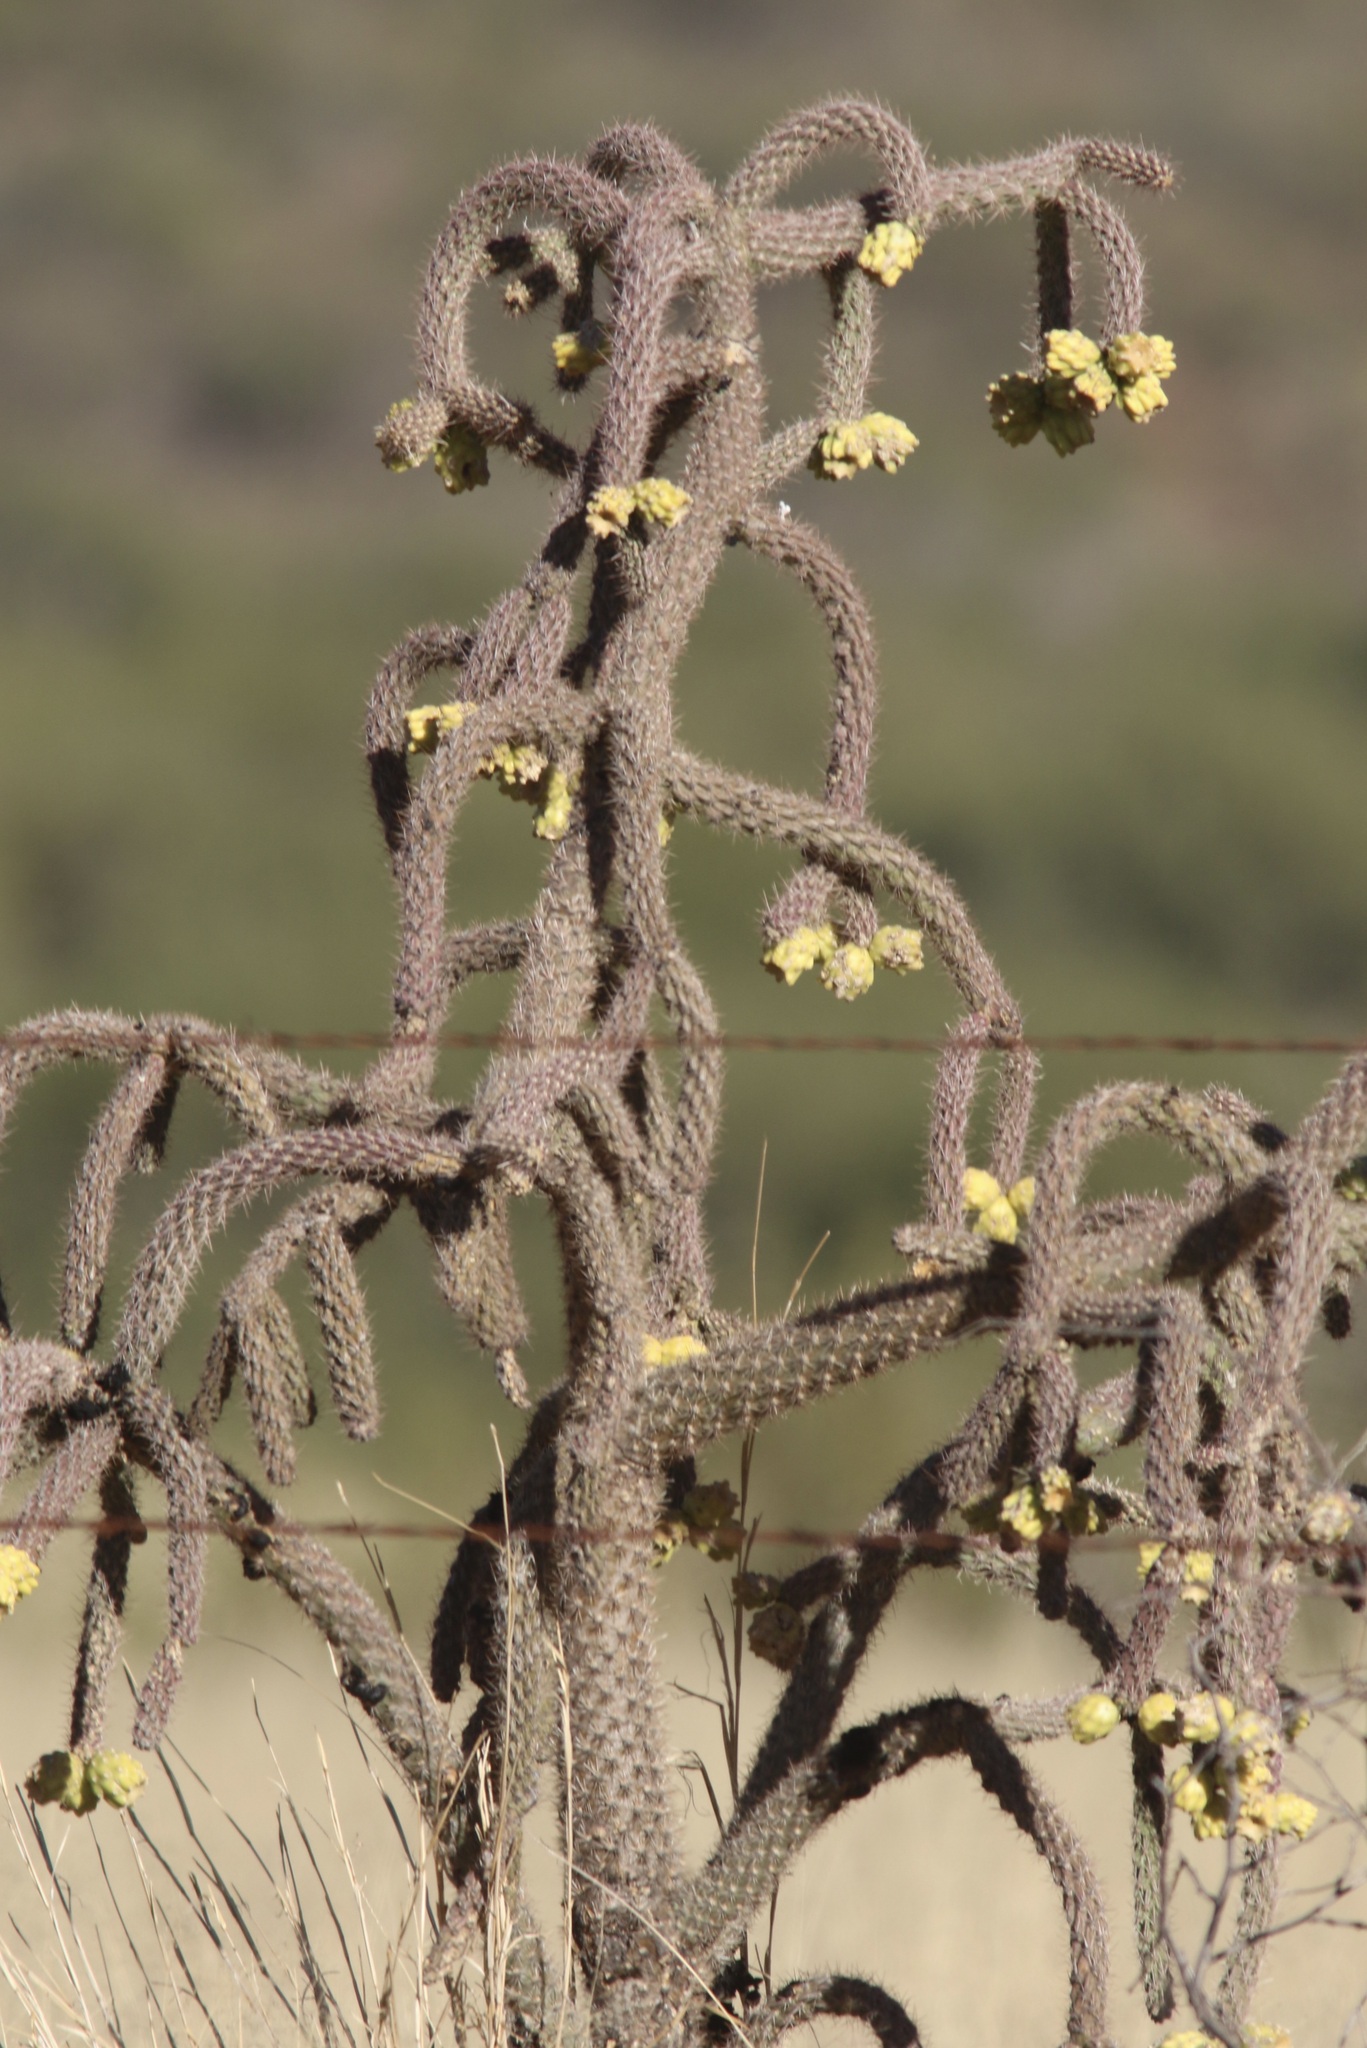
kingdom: Plantae
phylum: Tracheophyta
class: Magnoliopsida
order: Caryophyllales
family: Cactaceae
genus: Cylindropuntia
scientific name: Cylindropuntia imbricata
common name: Candelabrum cactus
